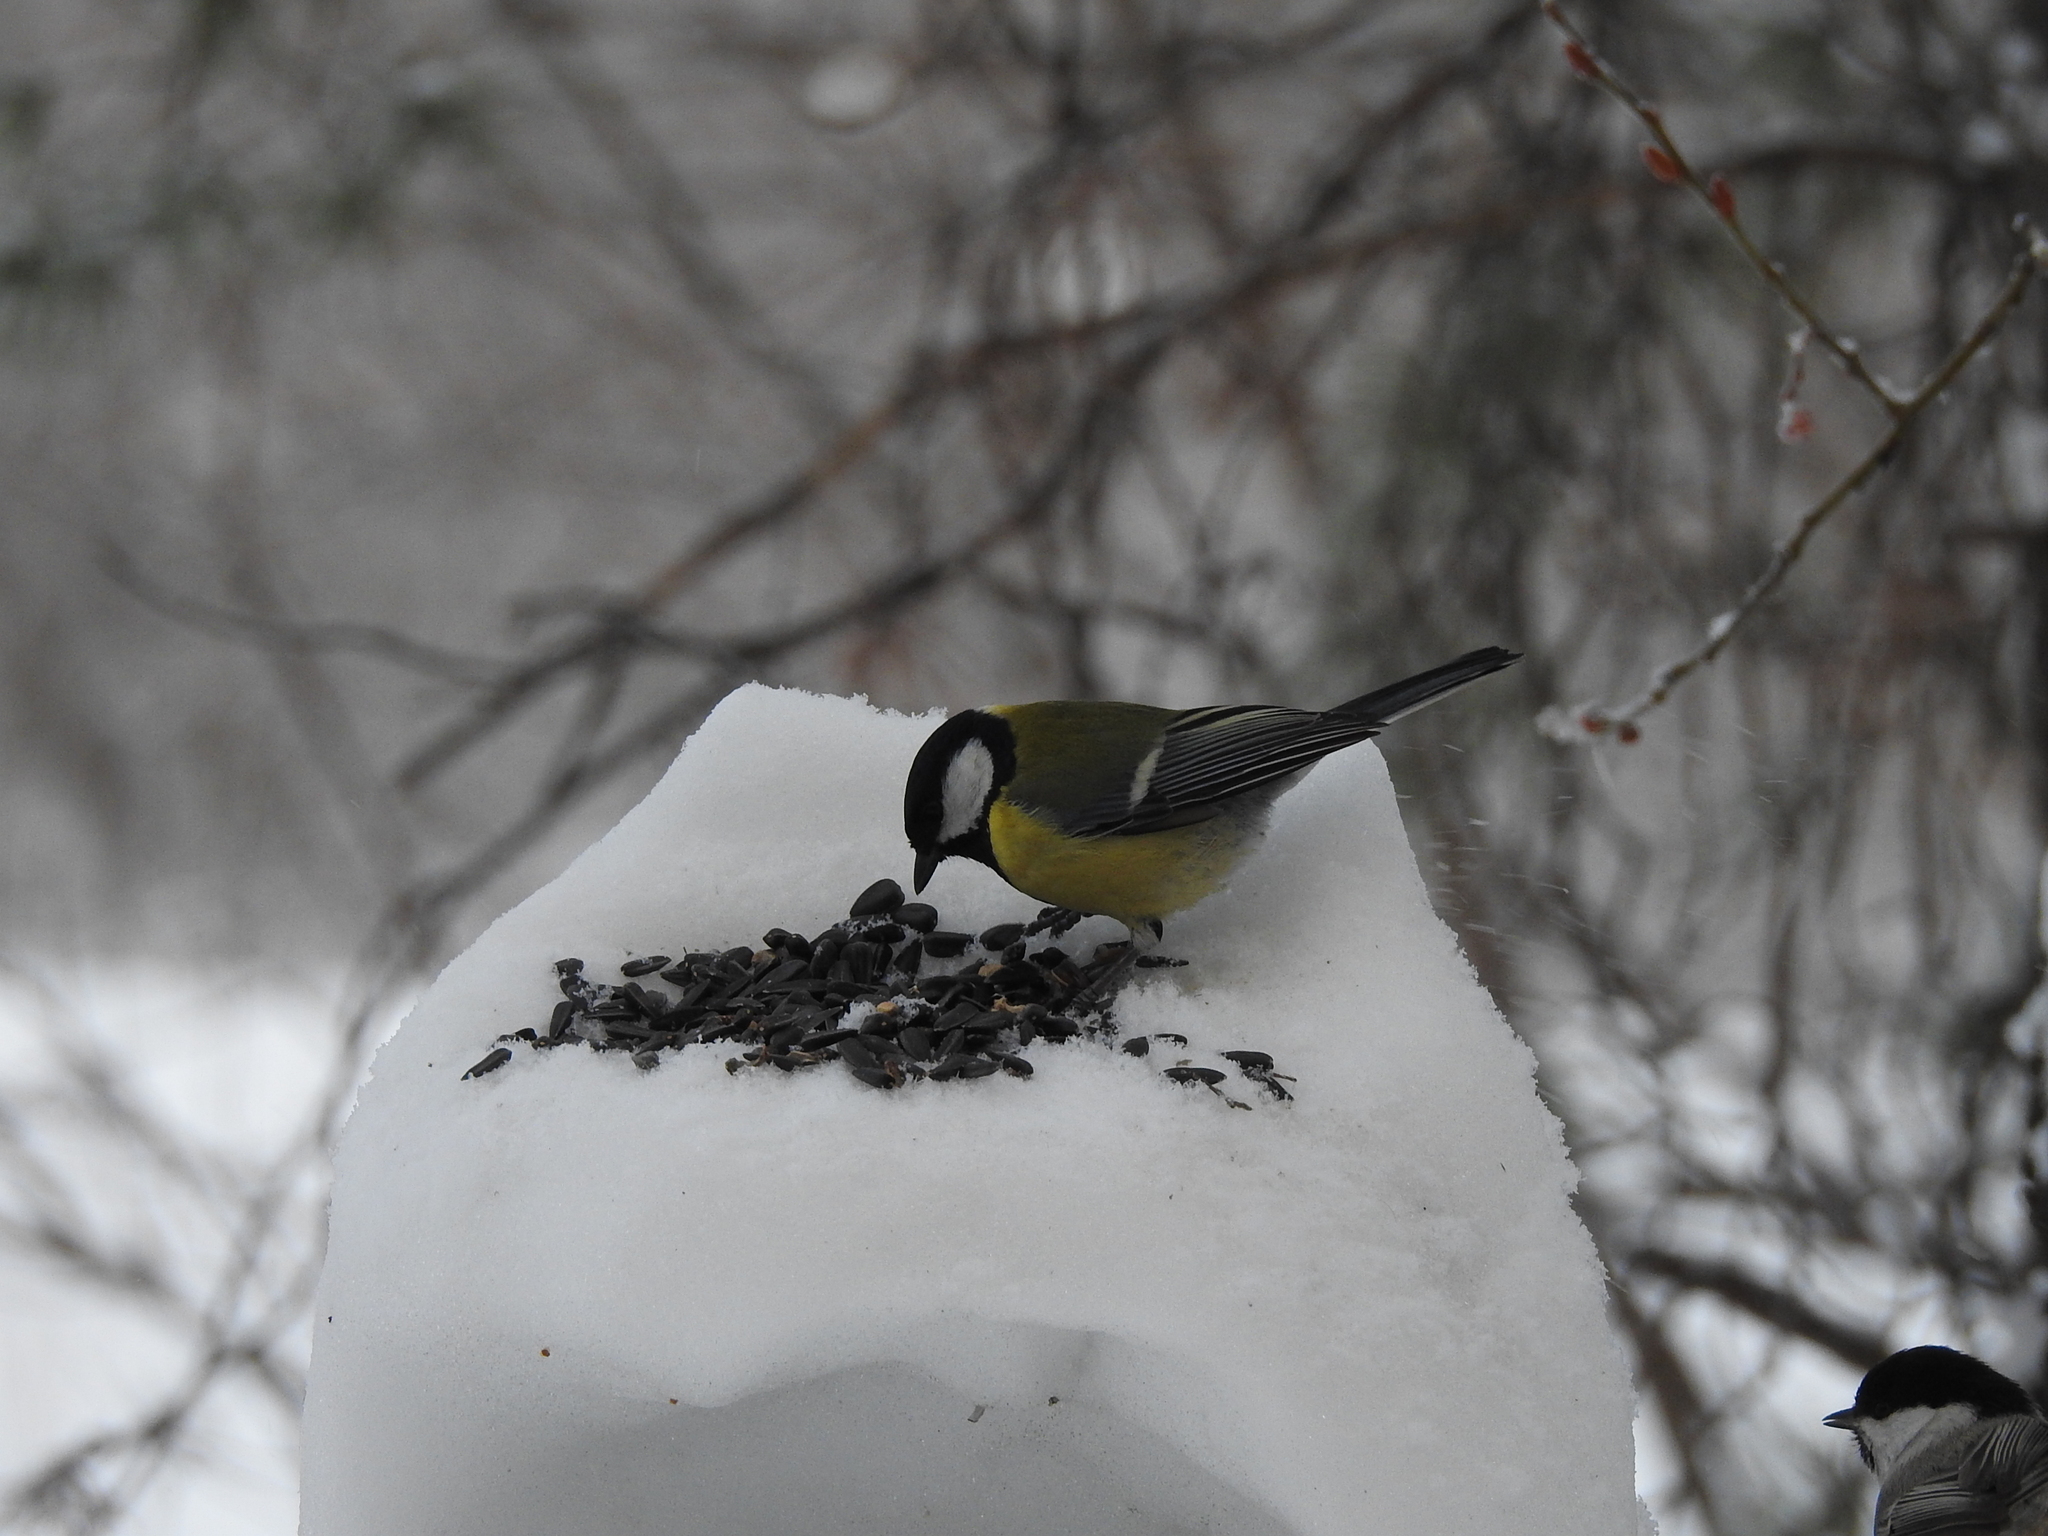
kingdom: Animalia
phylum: Chordata
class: Aves
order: Passeriformes
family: Paridae
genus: Parus
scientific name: Parus major
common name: Great tit
